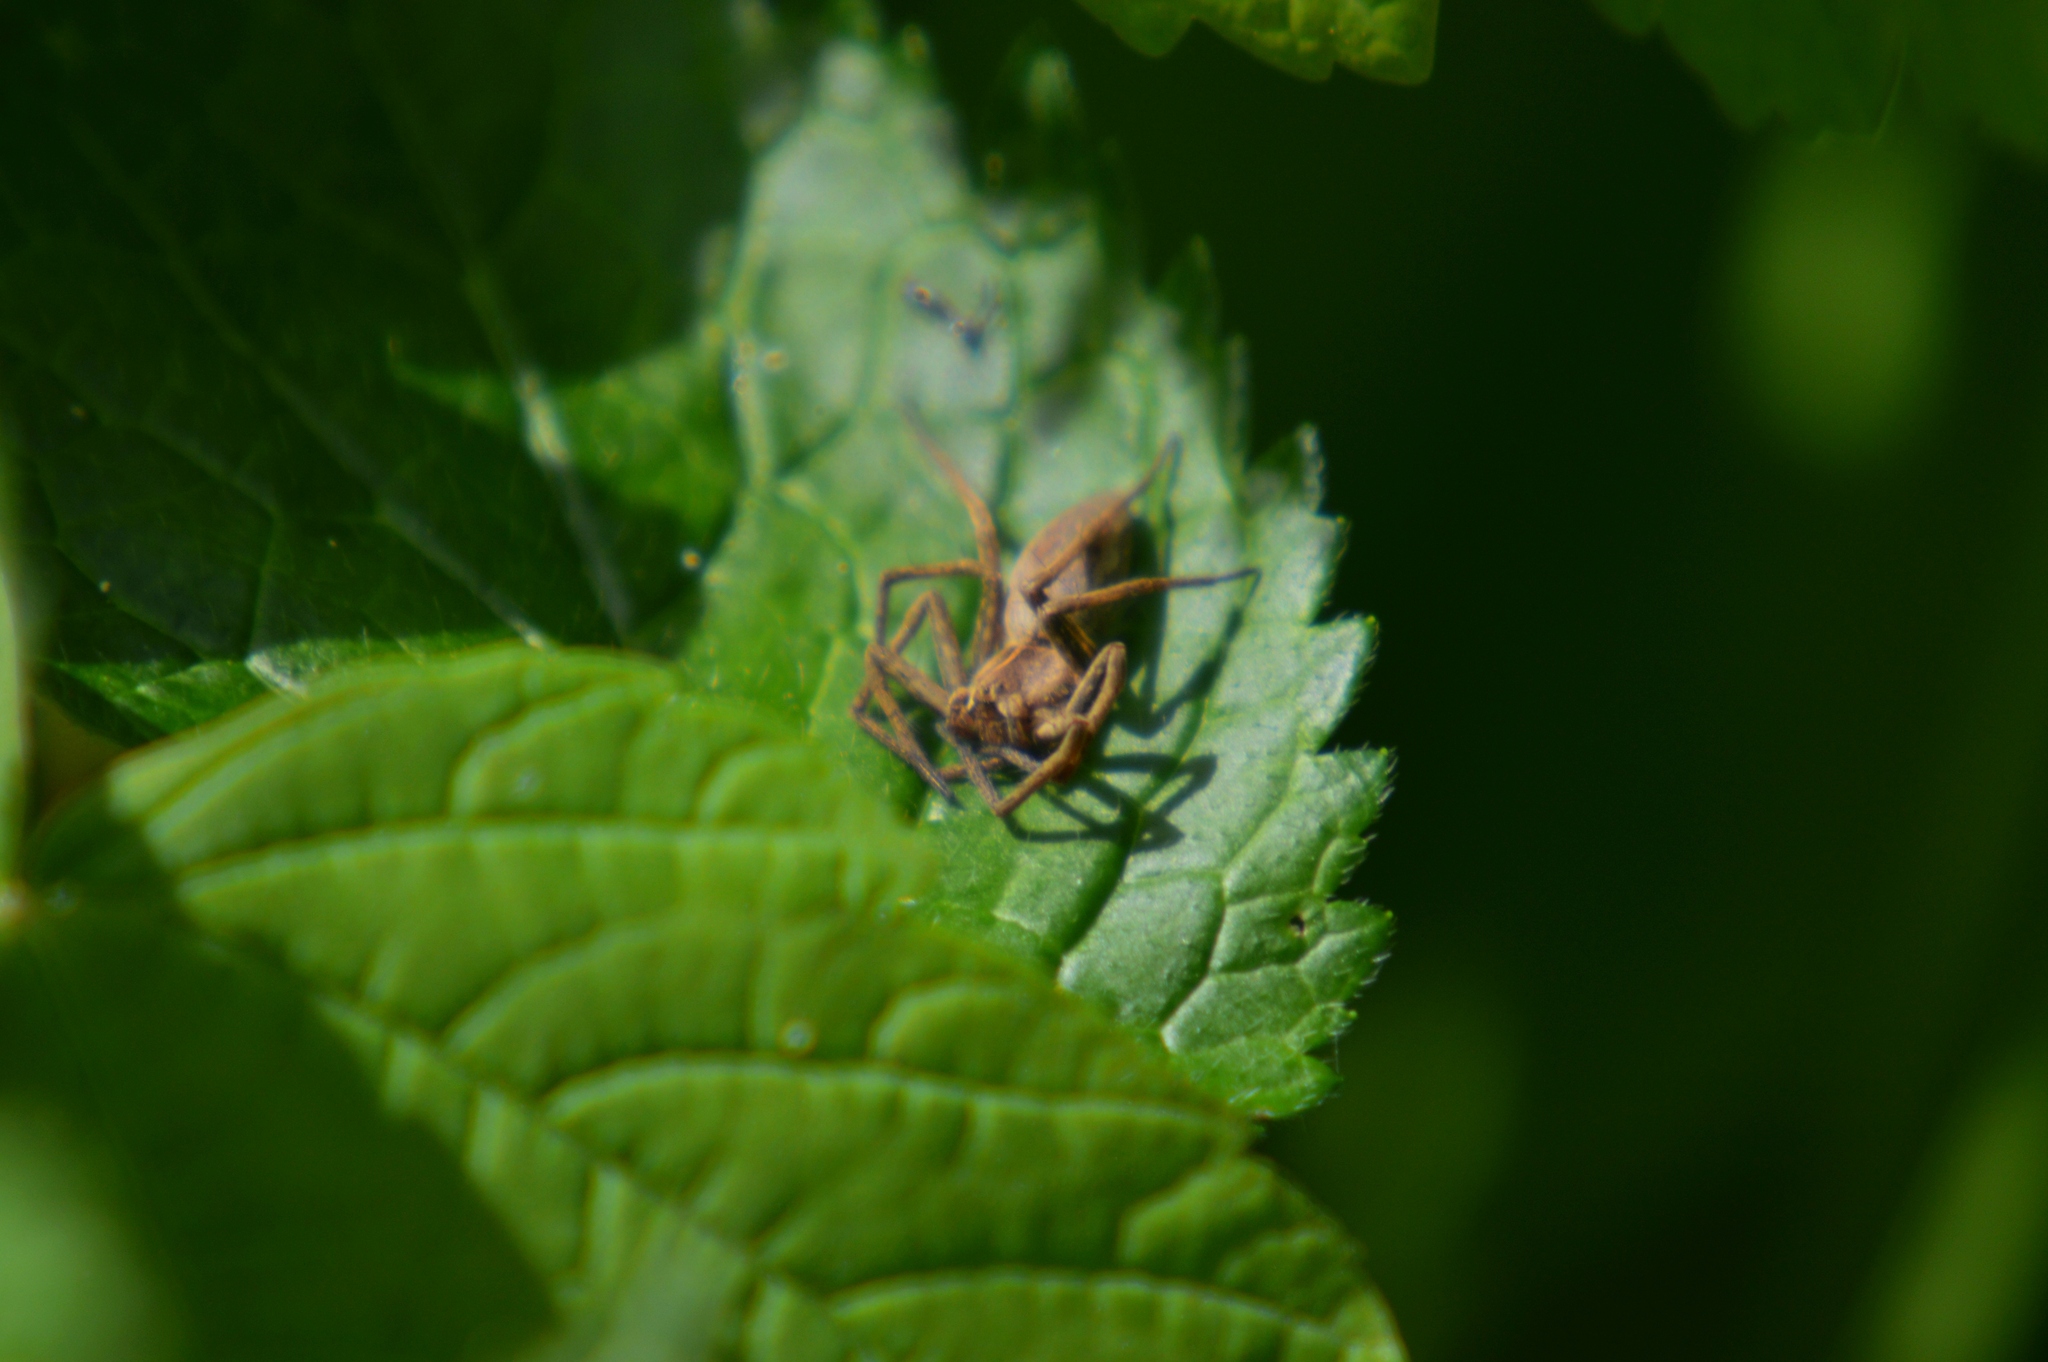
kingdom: Animalia
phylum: Arthropoda
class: Arachnida
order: Araneae
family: Pisauridae
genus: Pisaura
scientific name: Pisaura mirabilis
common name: Tent spider
